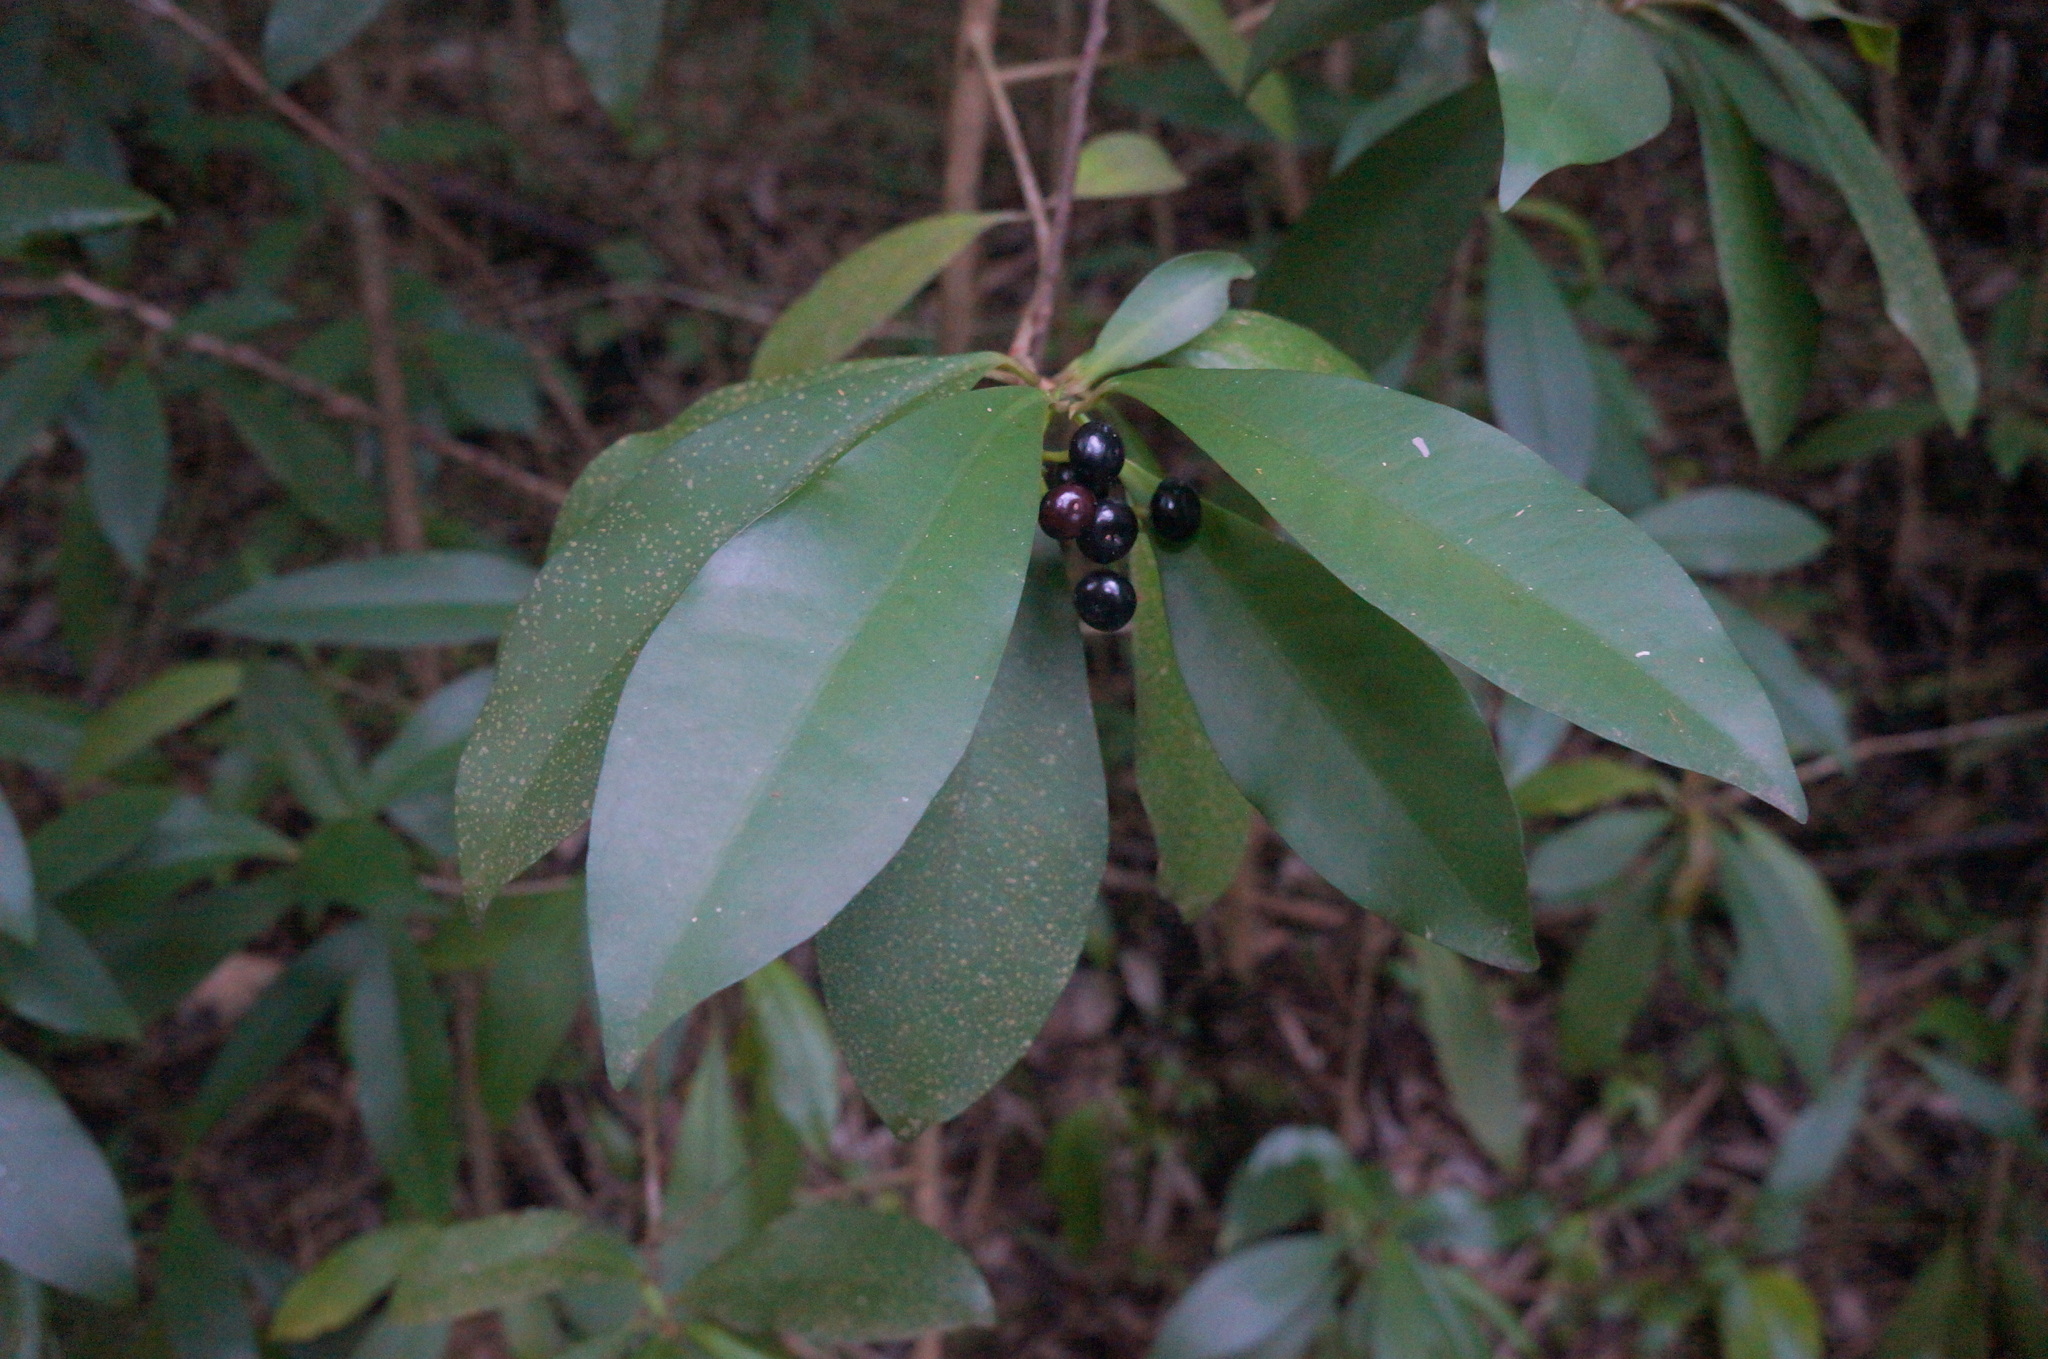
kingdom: Plantae
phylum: Tracheophyta
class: Magnoliopsida
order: Ericales
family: Primulaceae
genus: Ardisia
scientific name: Ardisia elliptica
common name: Shoebutton
